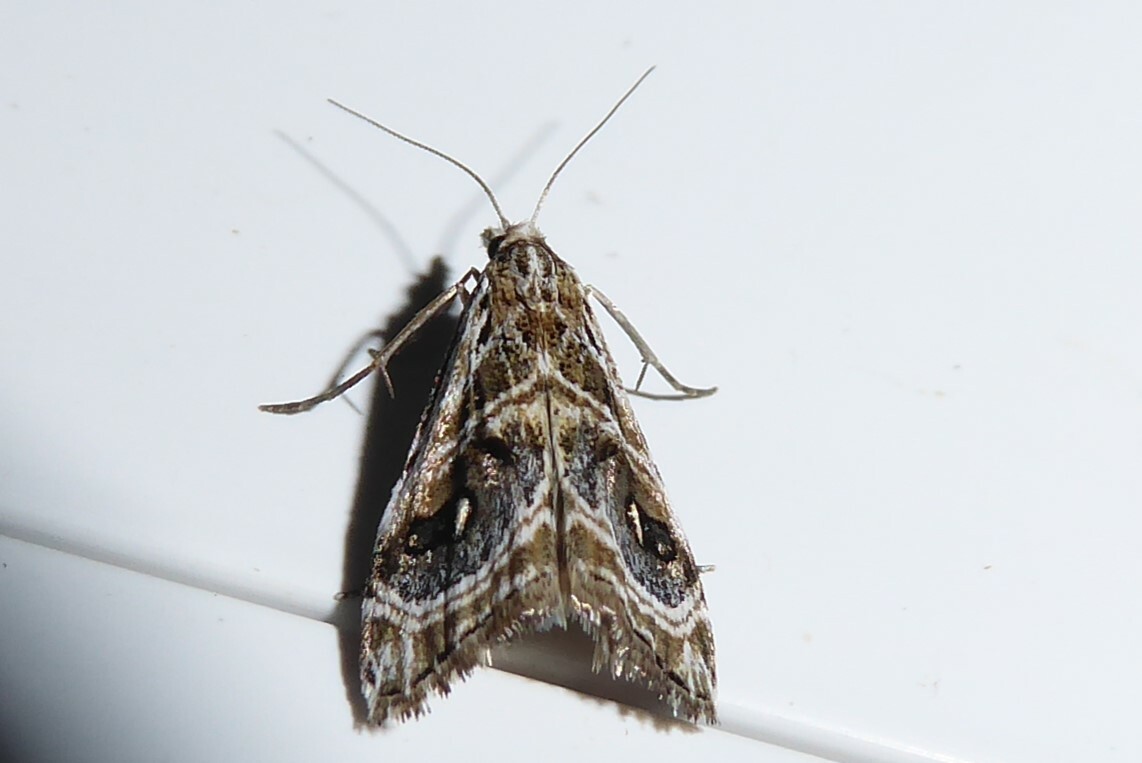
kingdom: Animalia
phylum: Arthropoda
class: Insecta
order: Lepidoptera
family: Crambidae
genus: Gadira
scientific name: Gadira acerella
